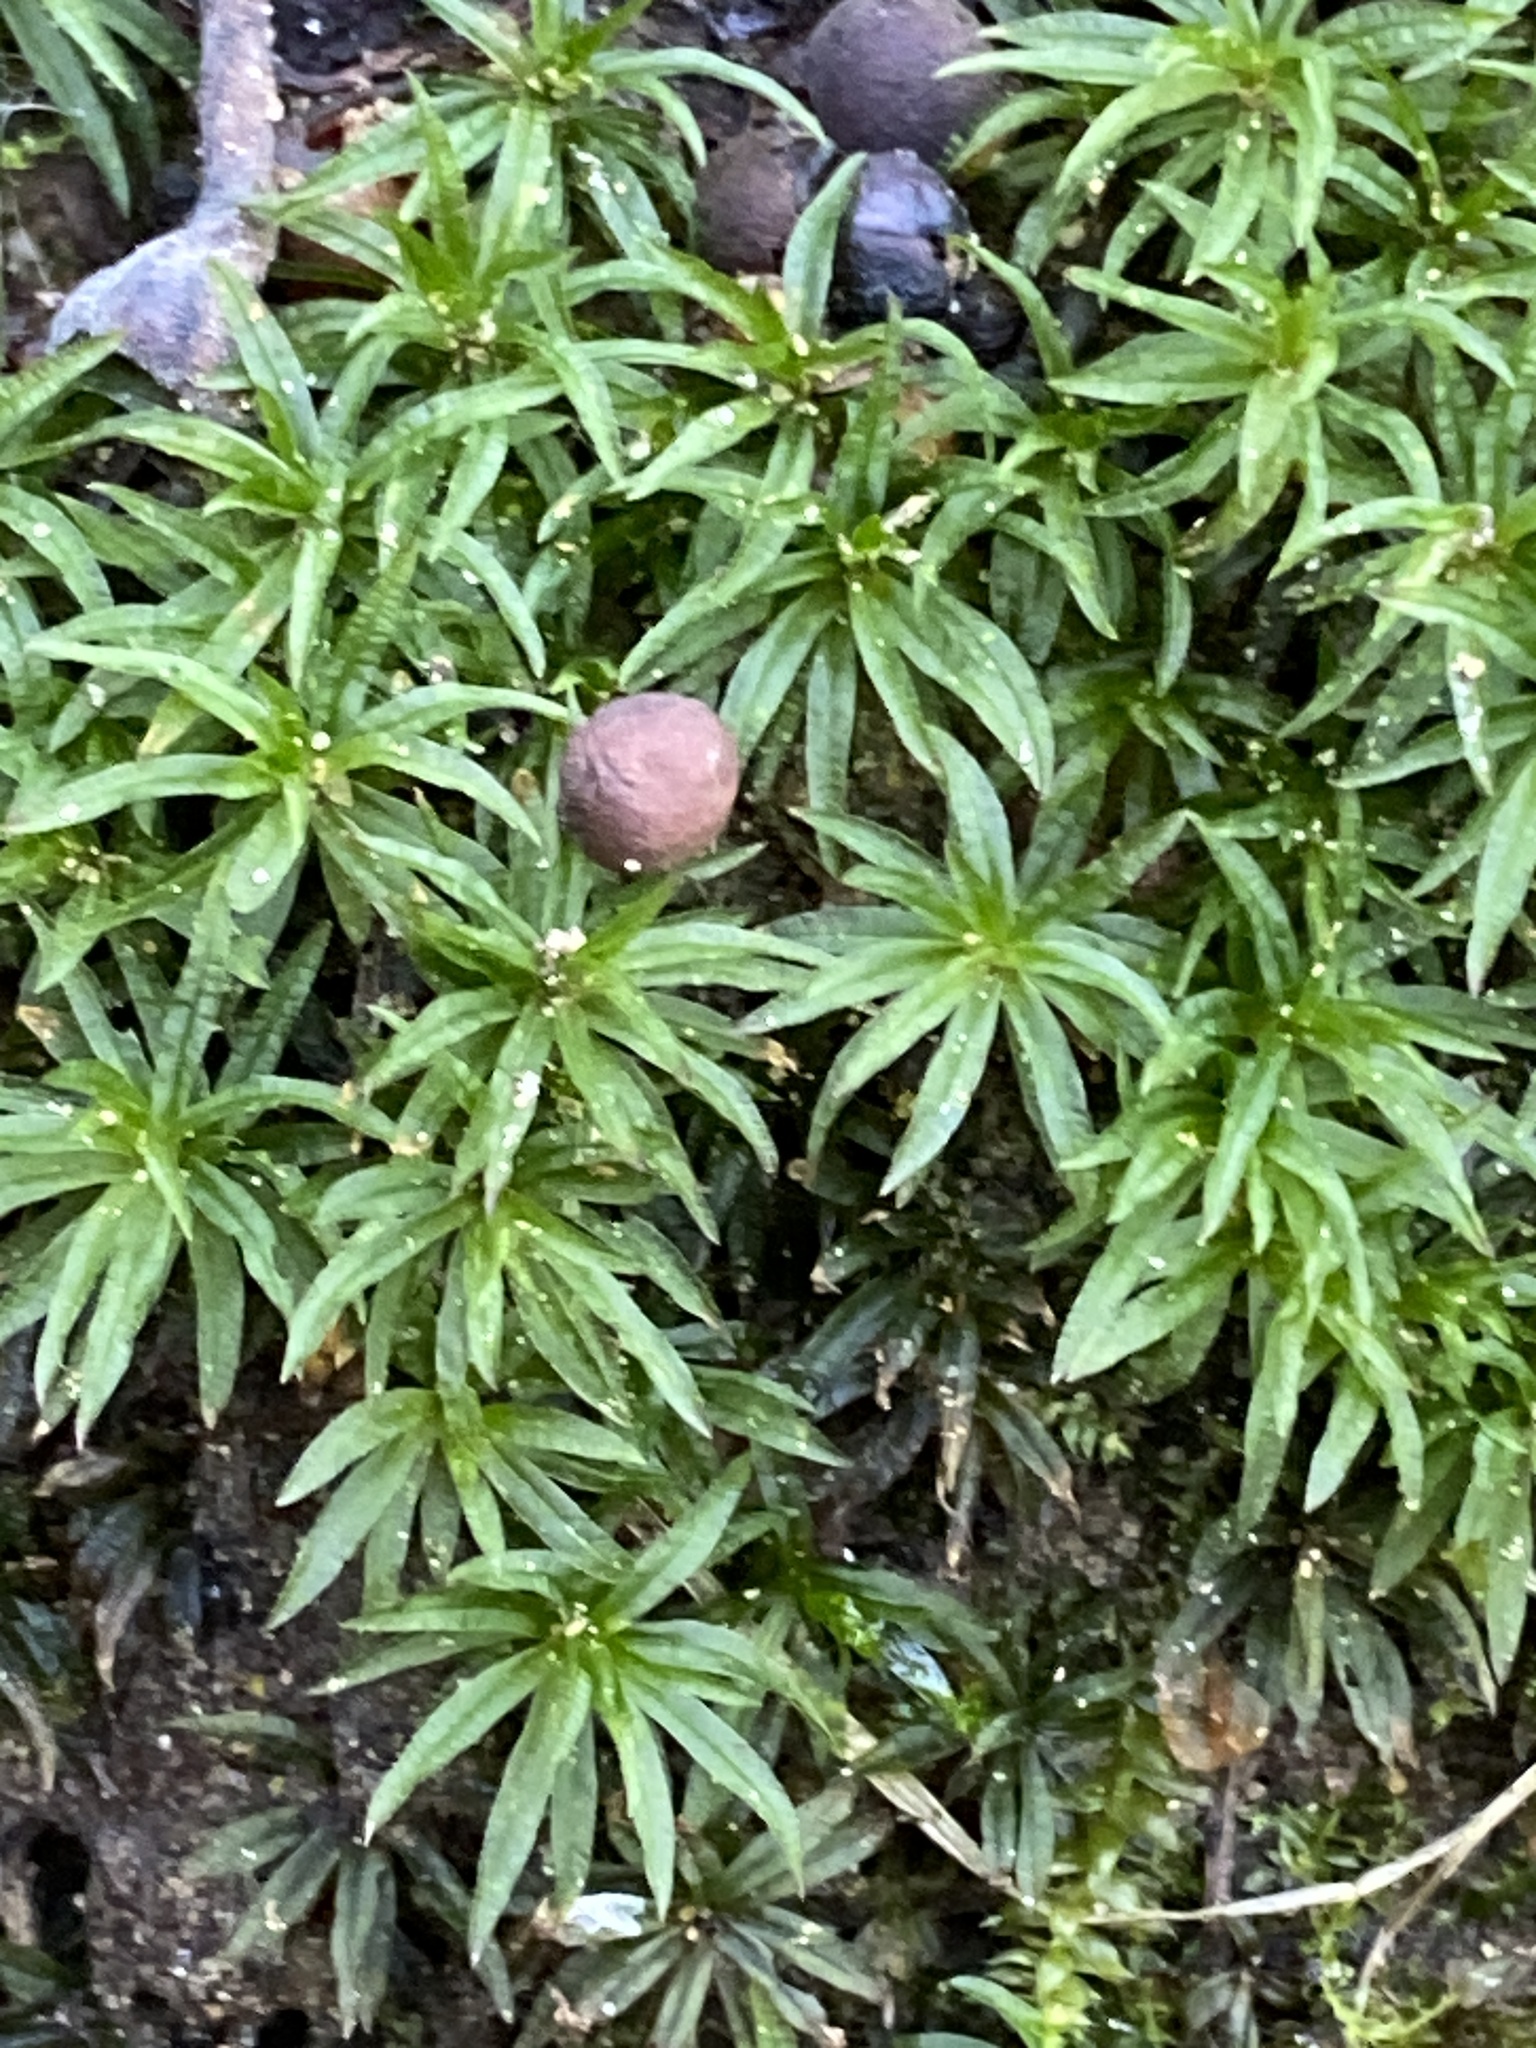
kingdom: Plantae
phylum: Bryophyta
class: Polytrichopsida
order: Polytrichales
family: Polytrichaceae
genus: Atrichum
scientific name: Atrichum undulatum
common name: Common smoothcap
